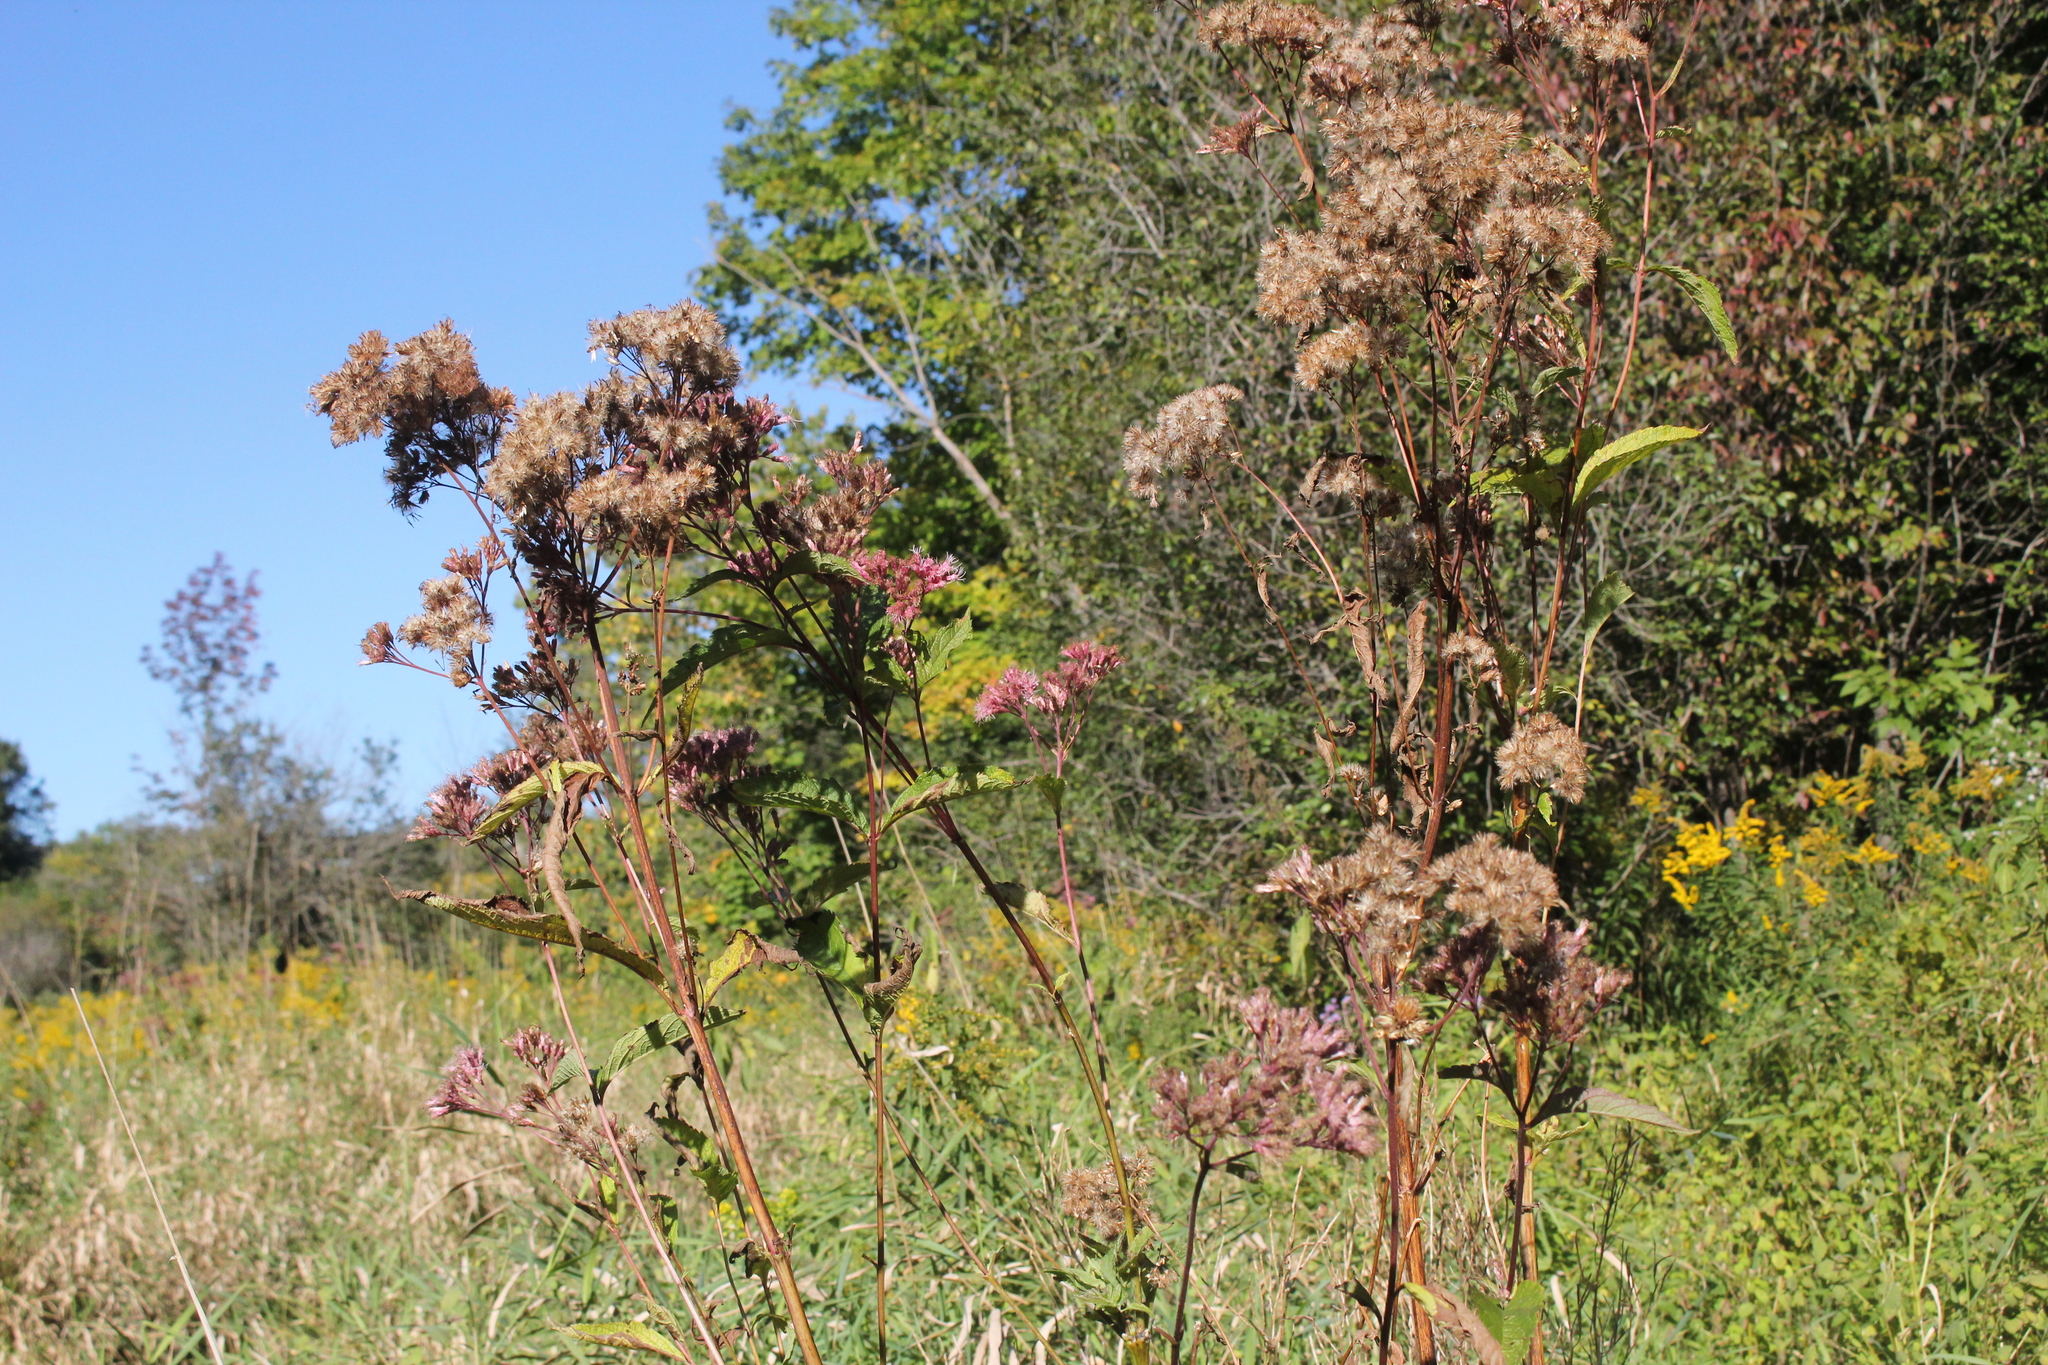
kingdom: Plantae
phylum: Tracheophyta
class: Magnoliopsida
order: Asterales
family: Asteraceae
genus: Eutrochium
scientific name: Eutrochium maculatum
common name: Spotted joe pye weed
